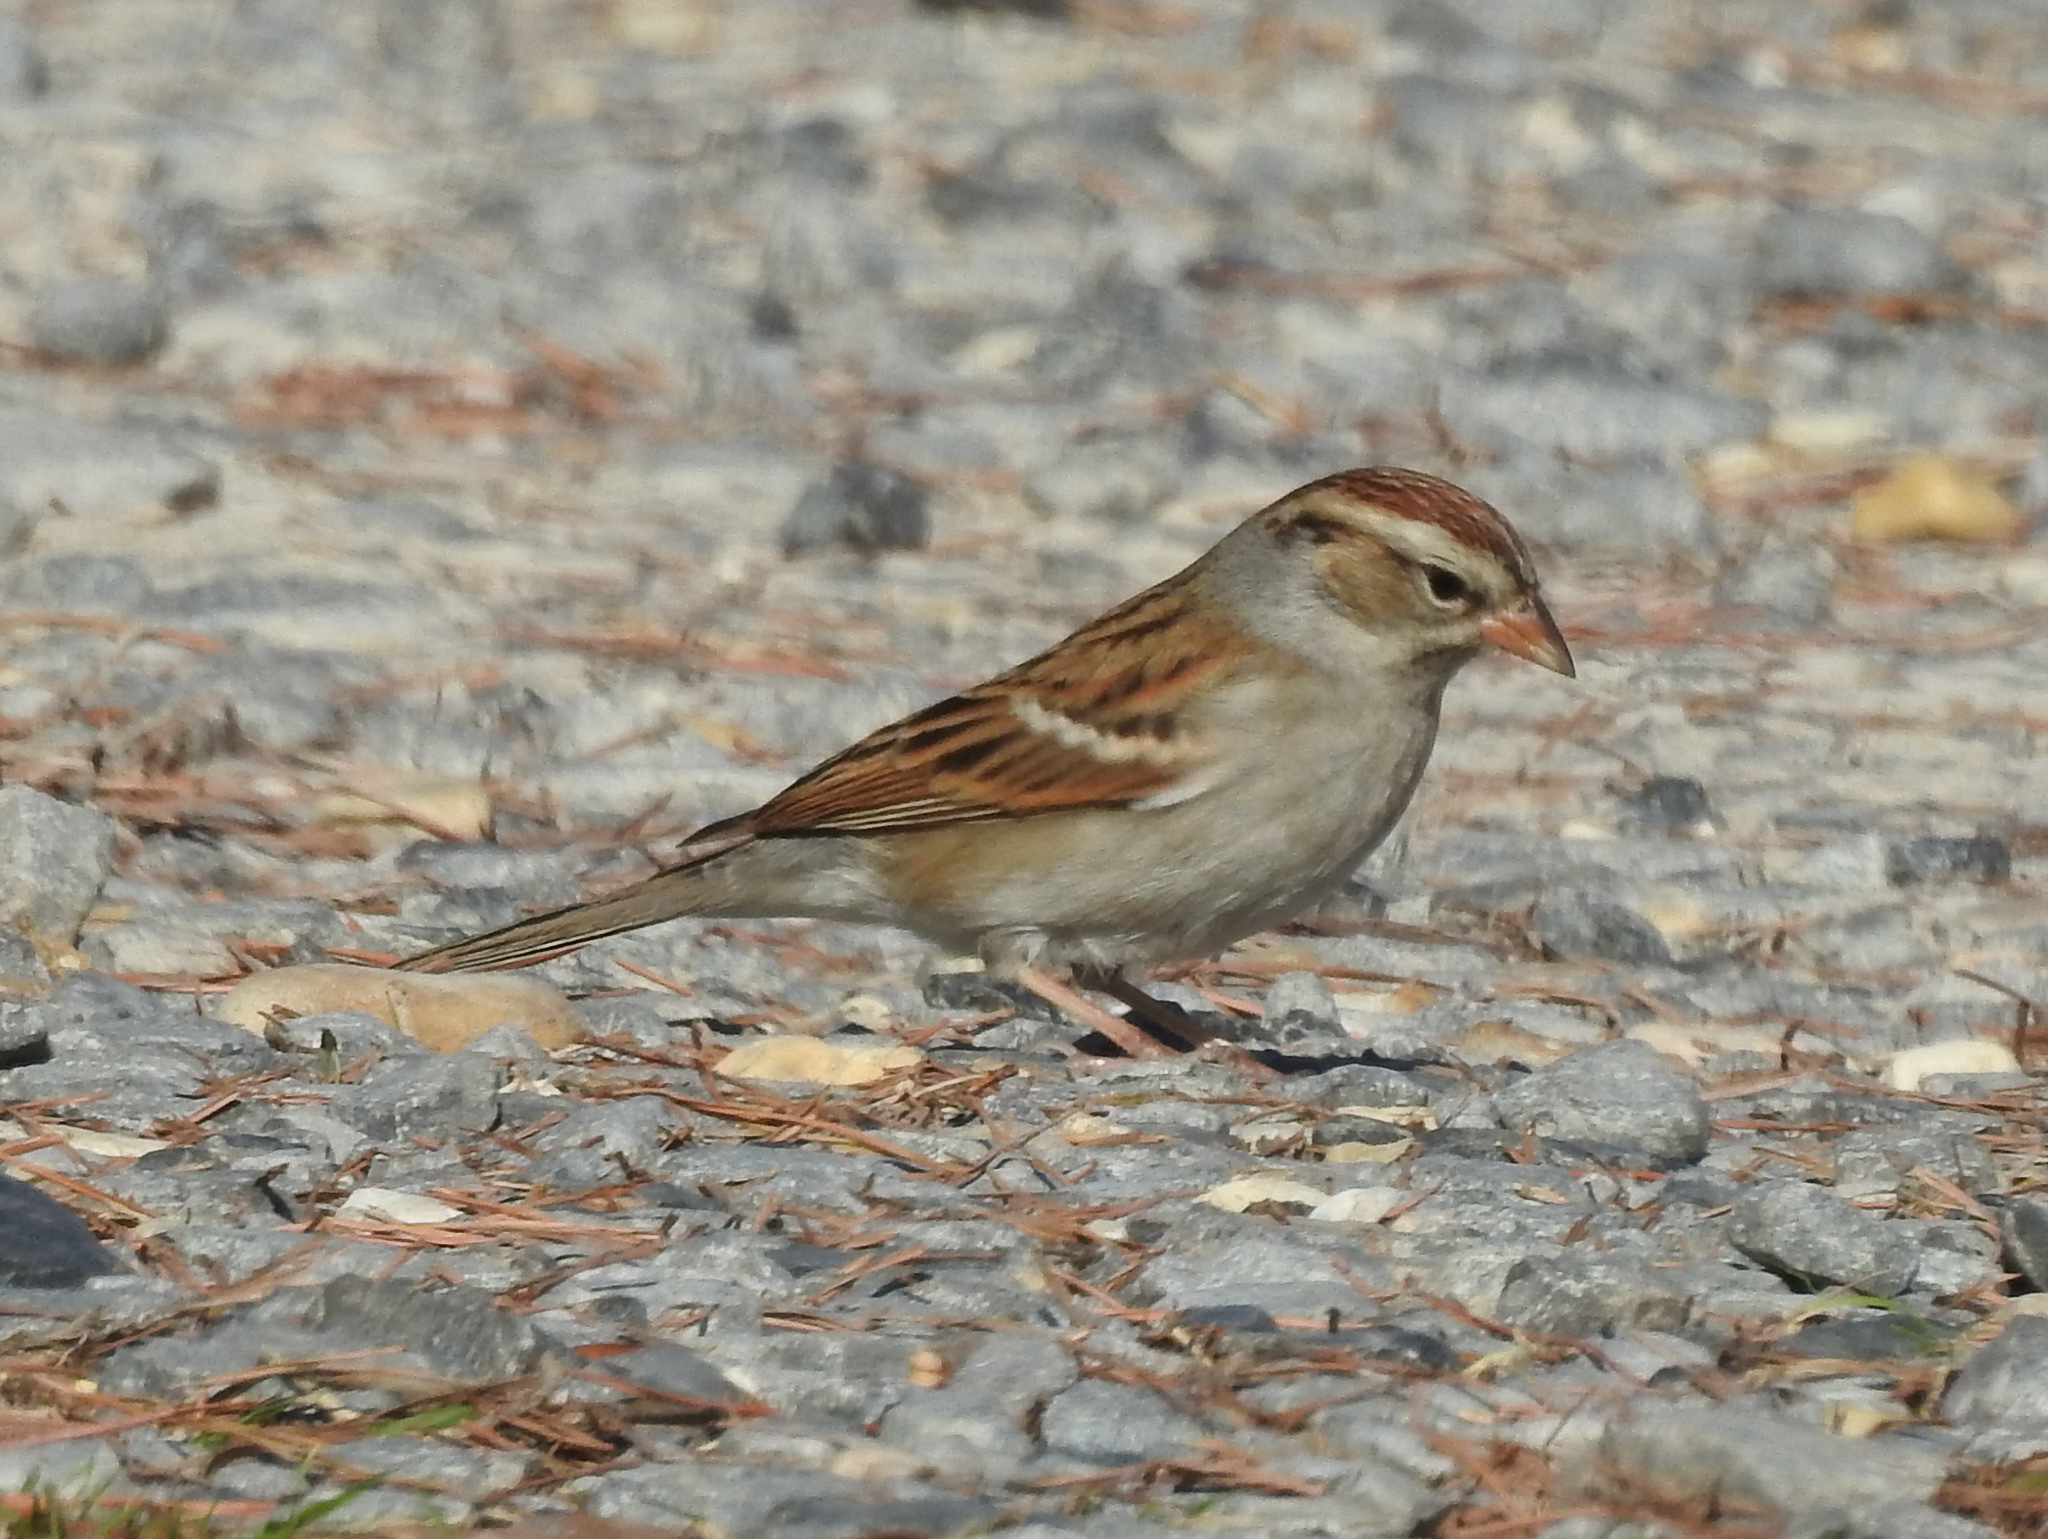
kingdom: Animalia
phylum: Chordata
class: Aves
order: Passeriformes
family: Passerellidae
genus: Spizella
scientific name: Spizella passerina
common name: Chipping sparrow
